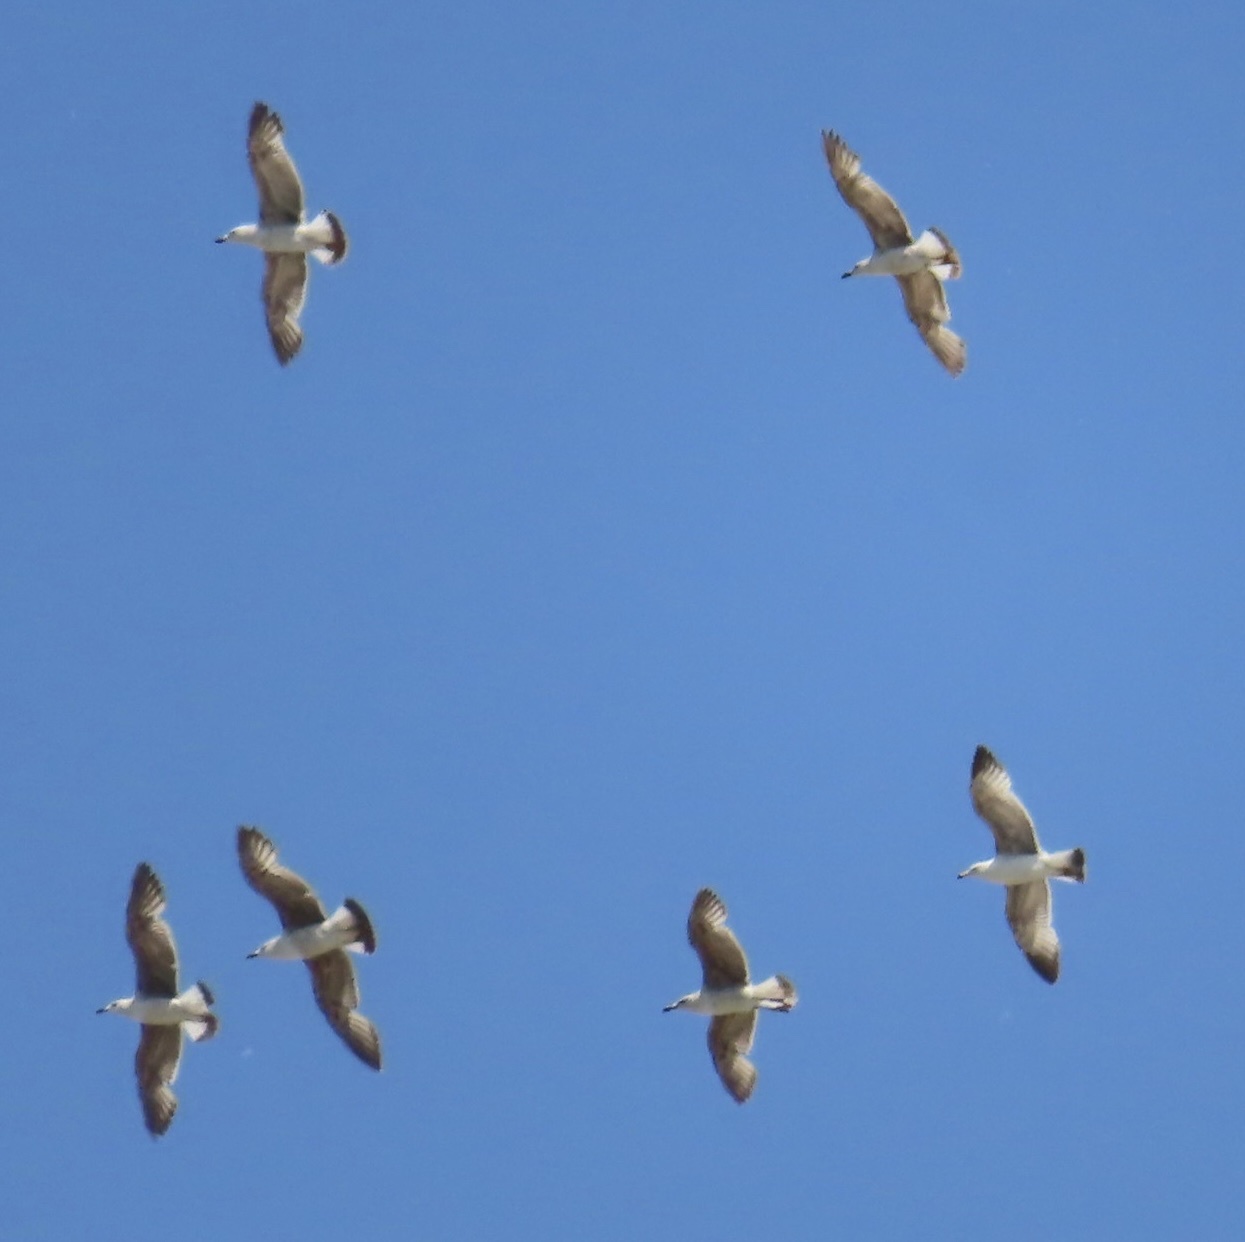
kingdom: Animalia
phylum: Chordata
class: Aves
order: Charadriiformes
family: Laridae
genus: Larus
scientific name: Larus michahellis
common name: Yellow-legged gull
